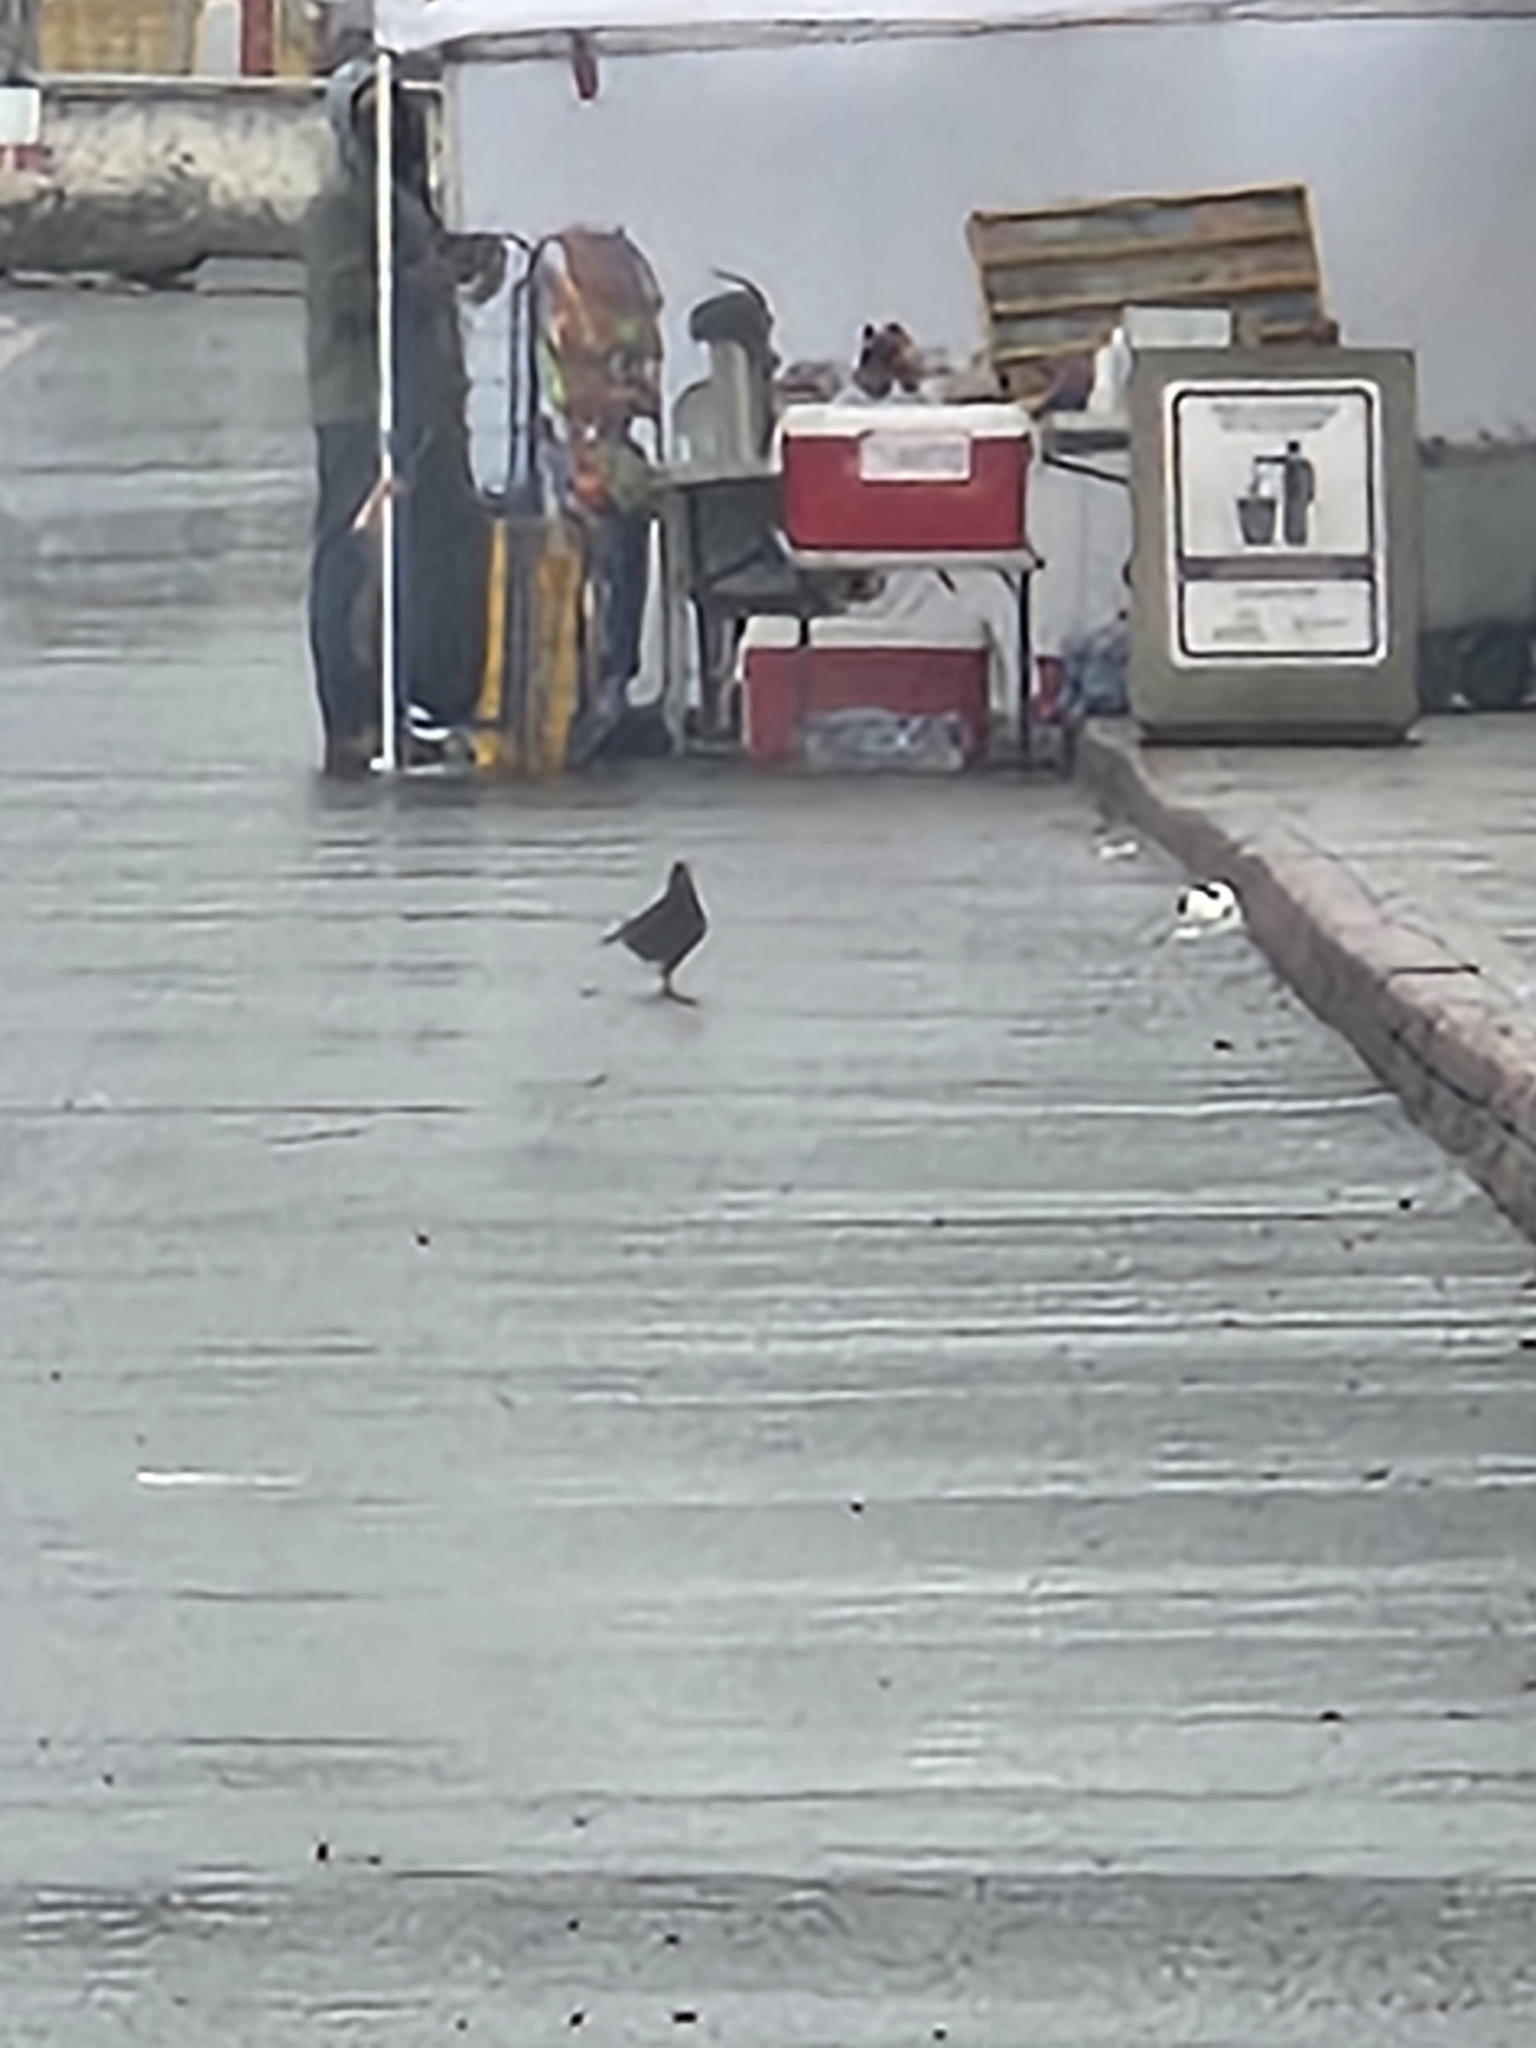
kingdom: Animalia
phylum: Chordata
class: Aves
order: Columbiformes
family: Columbidae
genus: Columba
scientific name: Columba livia
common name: Rock pigeon
